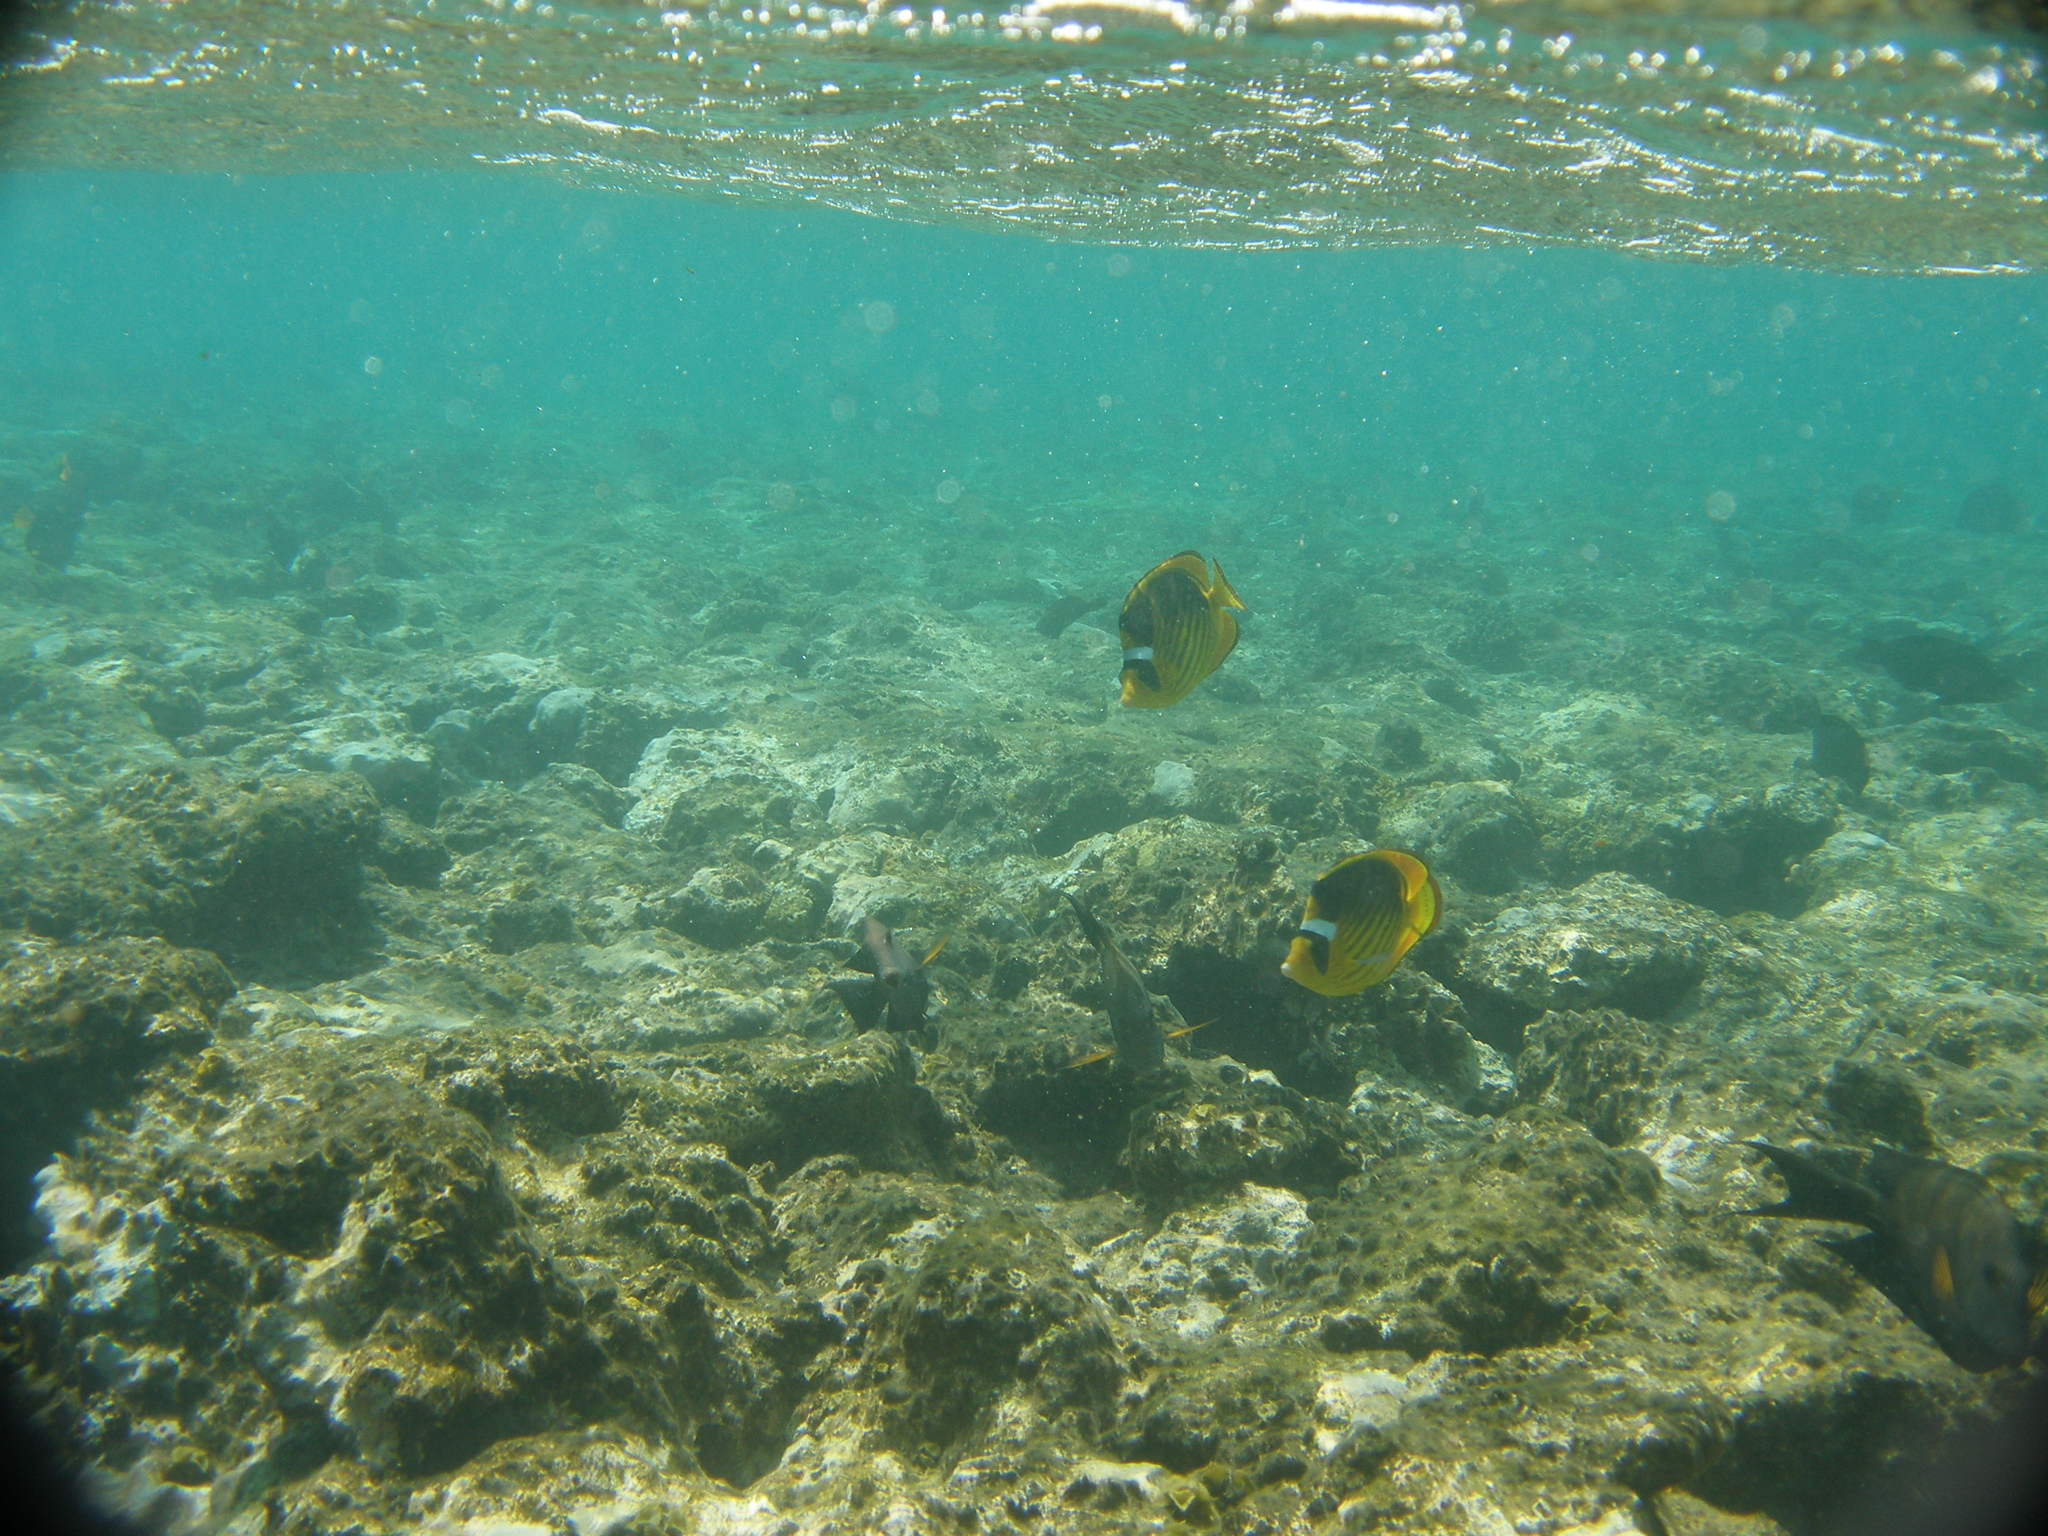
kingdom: Animalia
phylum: Chordata
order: Perciformes
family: Chaetodontidae
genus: Chaetodon
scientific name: Chaetodon fasciatus
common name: Diagonal butterflyfish
